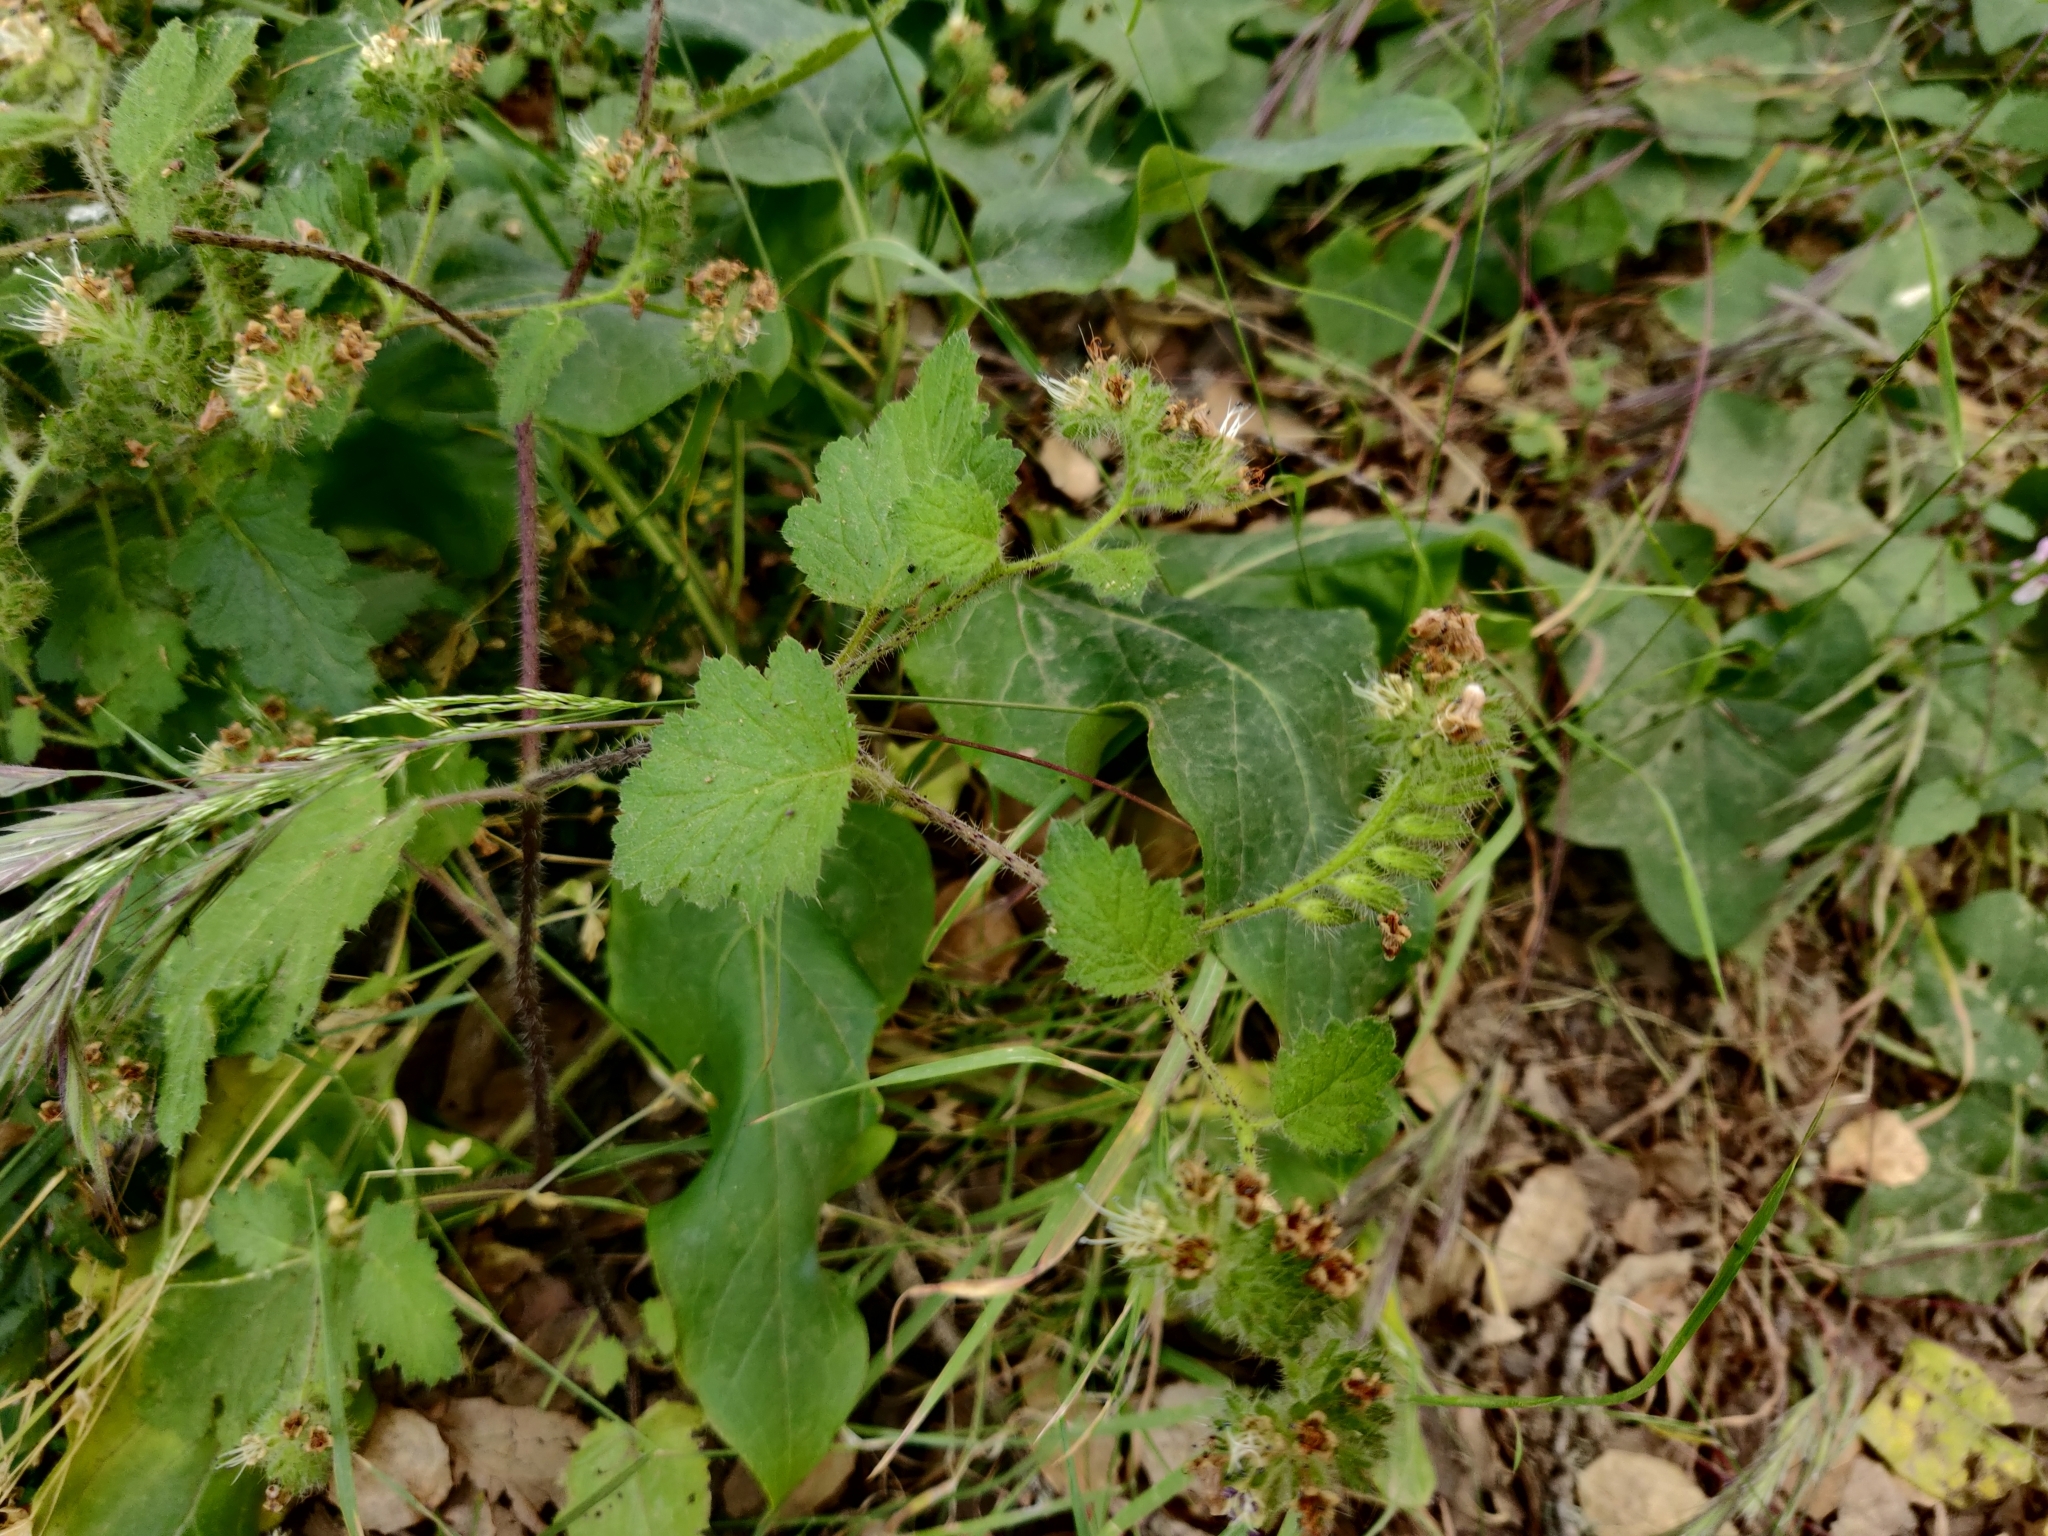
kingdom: Plantae
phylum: Tracheophyta
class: Magnoliopsida
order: Boraginales
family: Hydrophyllaceae
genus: Phacelia
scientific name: Phacelia malvifolia
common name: Mallow-leaf phacelia
